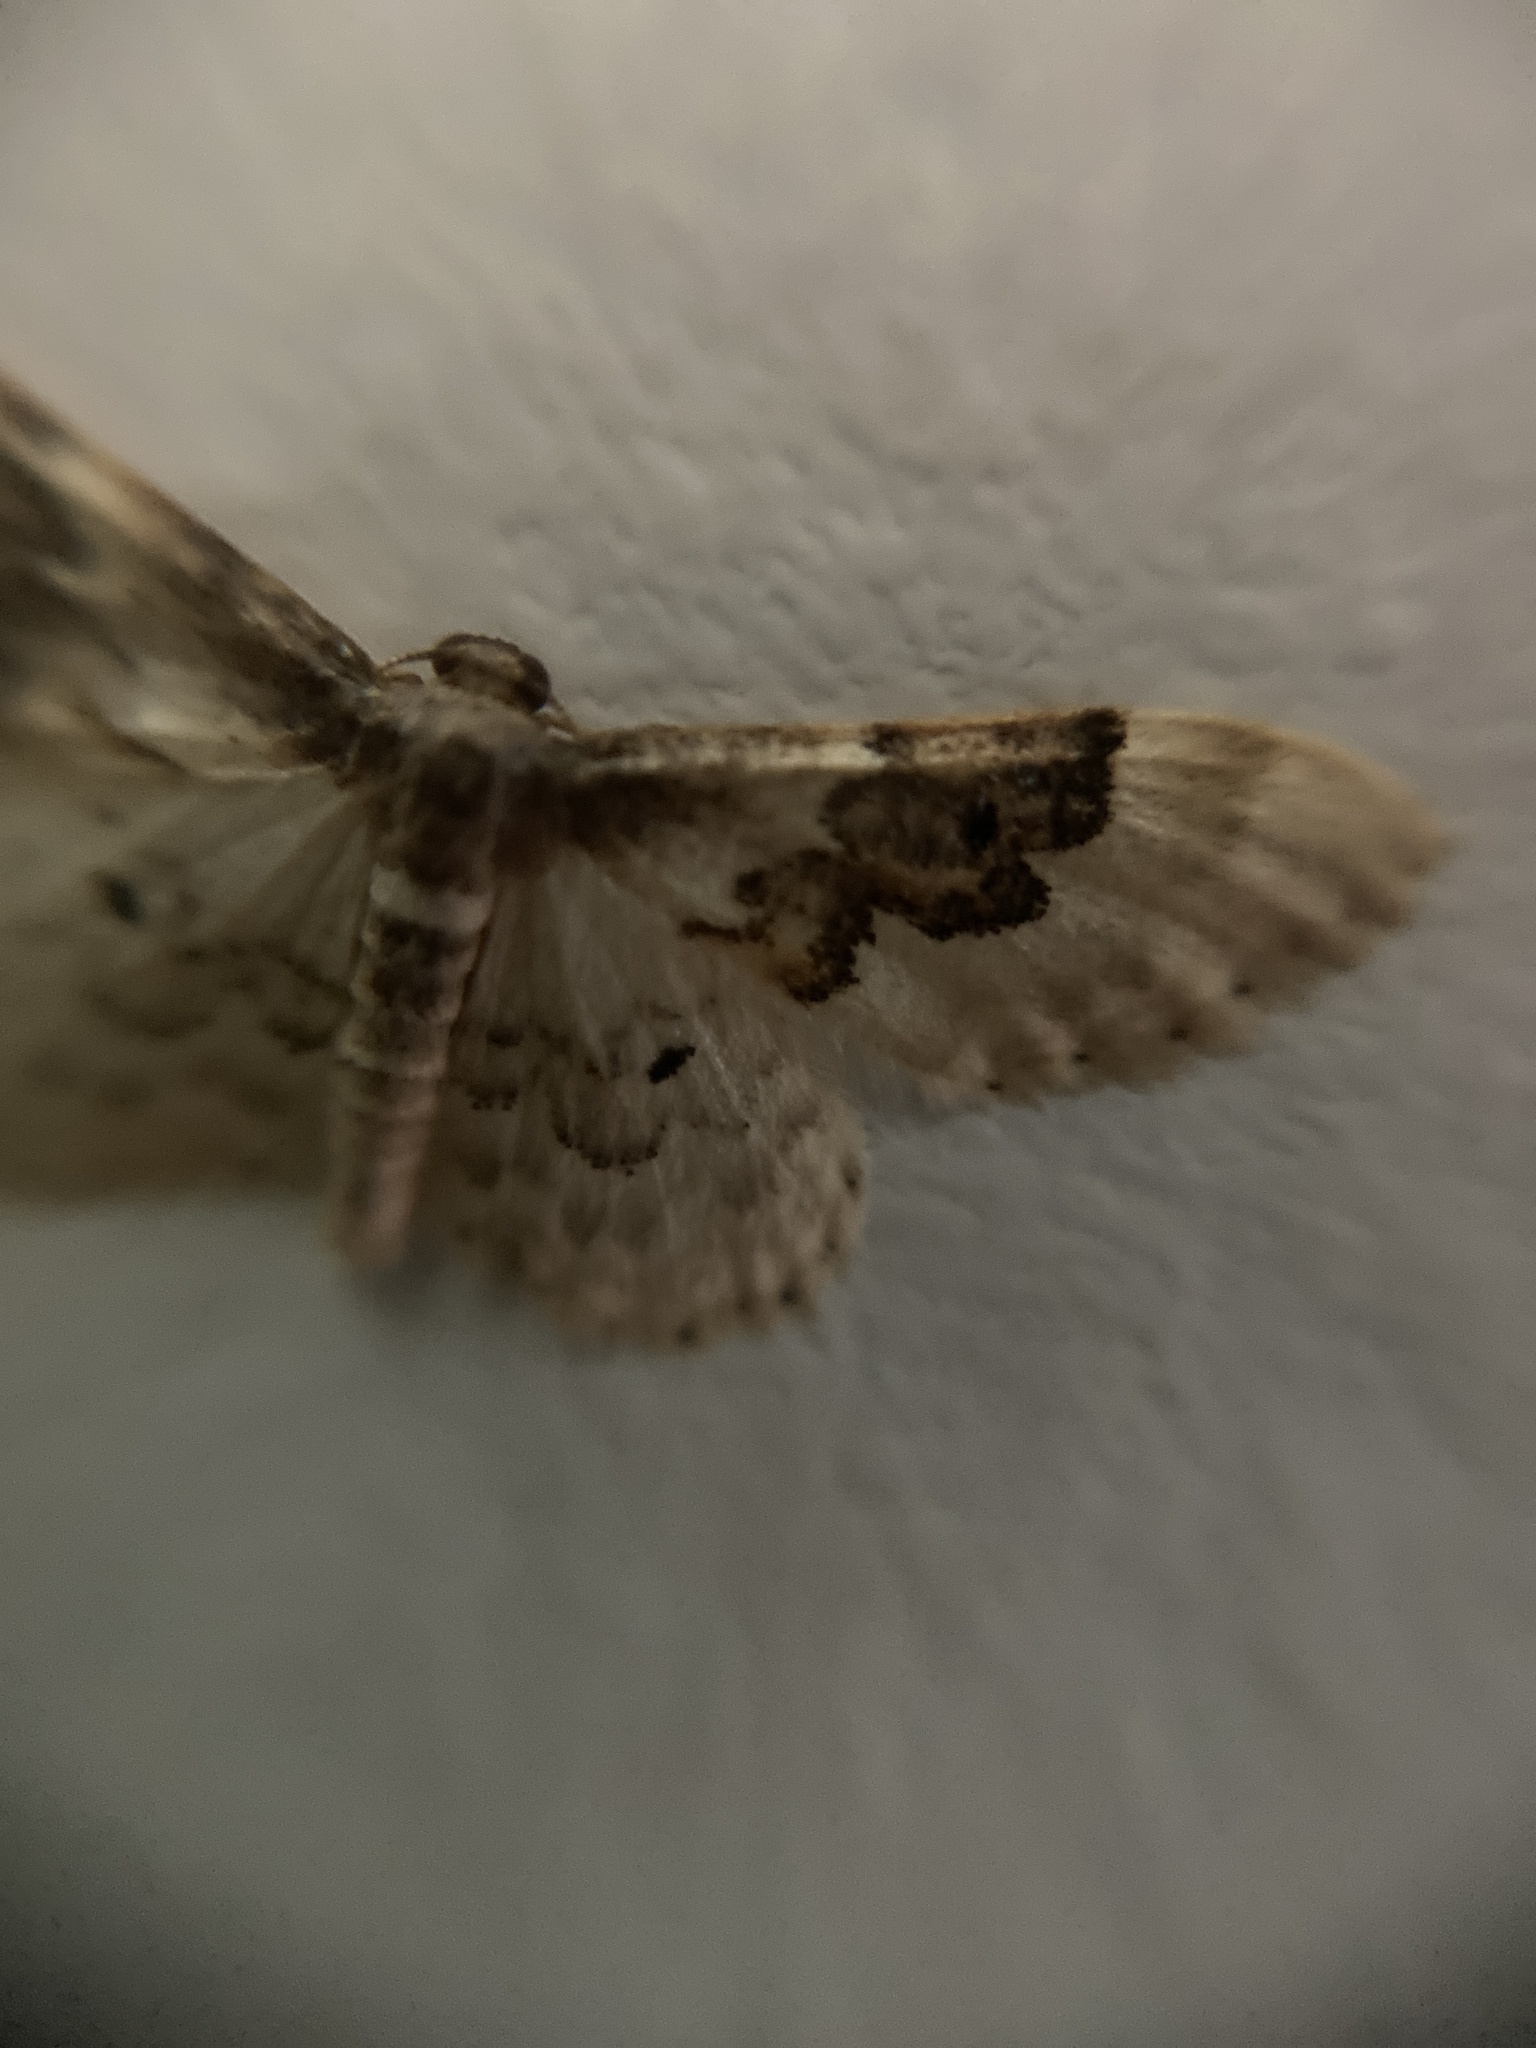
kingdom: Animalia
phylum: Arthropoda
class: Insecta
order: Lepidoptera
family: Geometridae
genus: Idaea
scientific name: Idaea rusticata
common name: Least carpet
